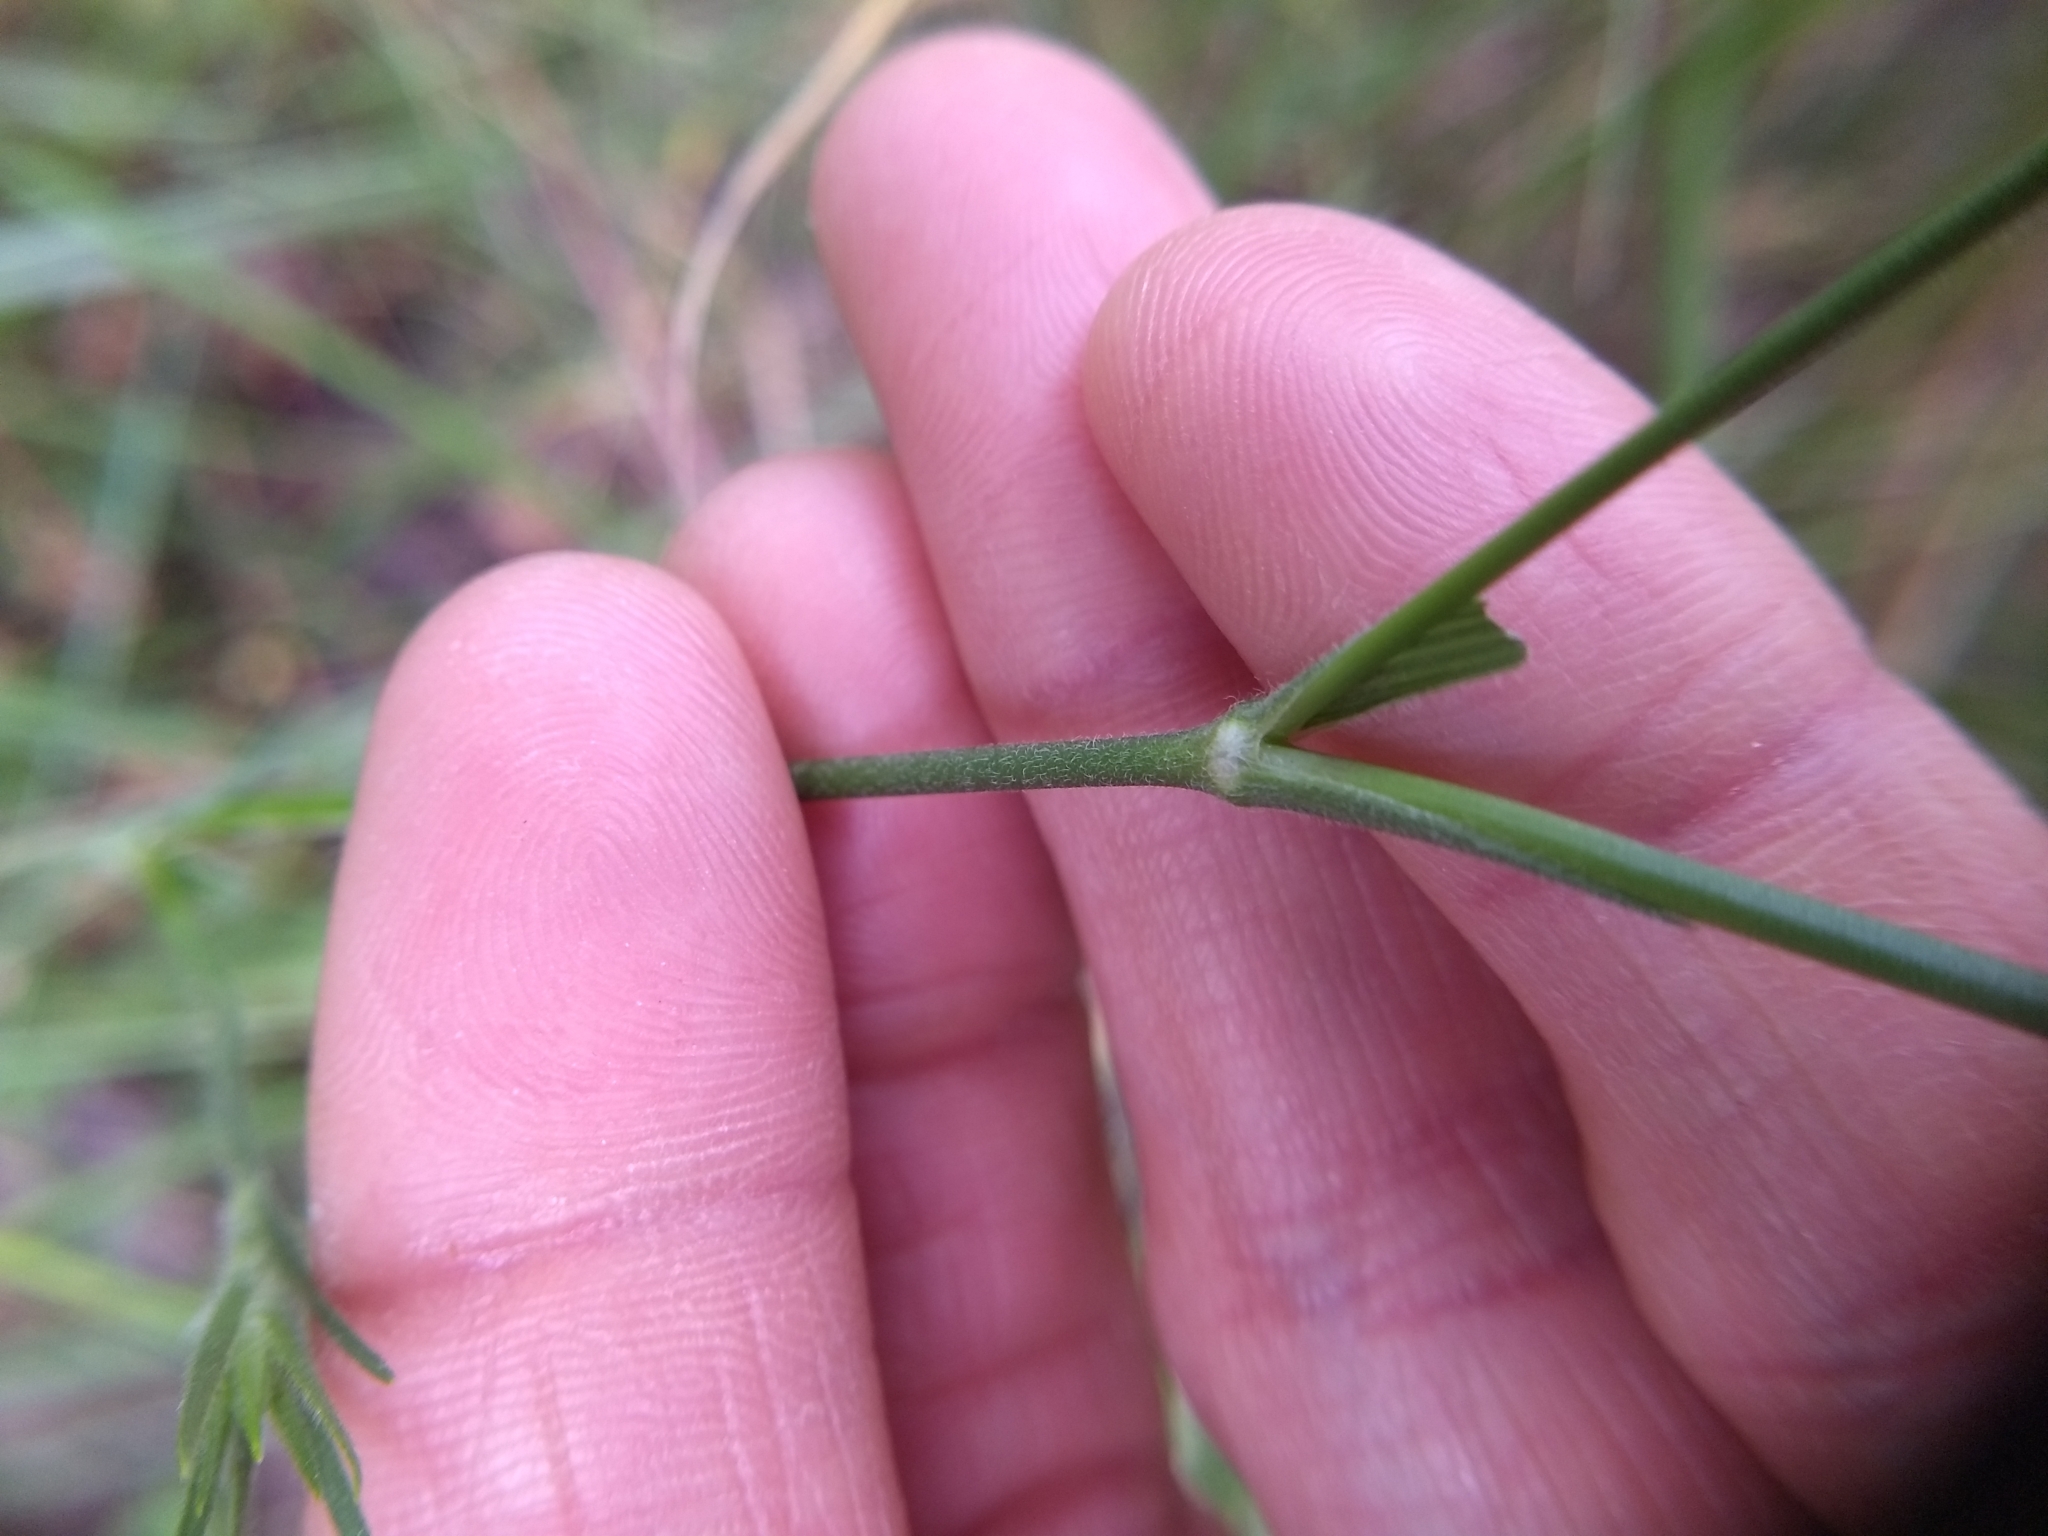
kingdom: Plantae
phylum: Tracheophyta
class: Magnoliopsida
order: Caryophyllales
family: Caryophyllaceae
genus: Dianthus
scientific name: Dianthus armeria
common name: Deptford pink
